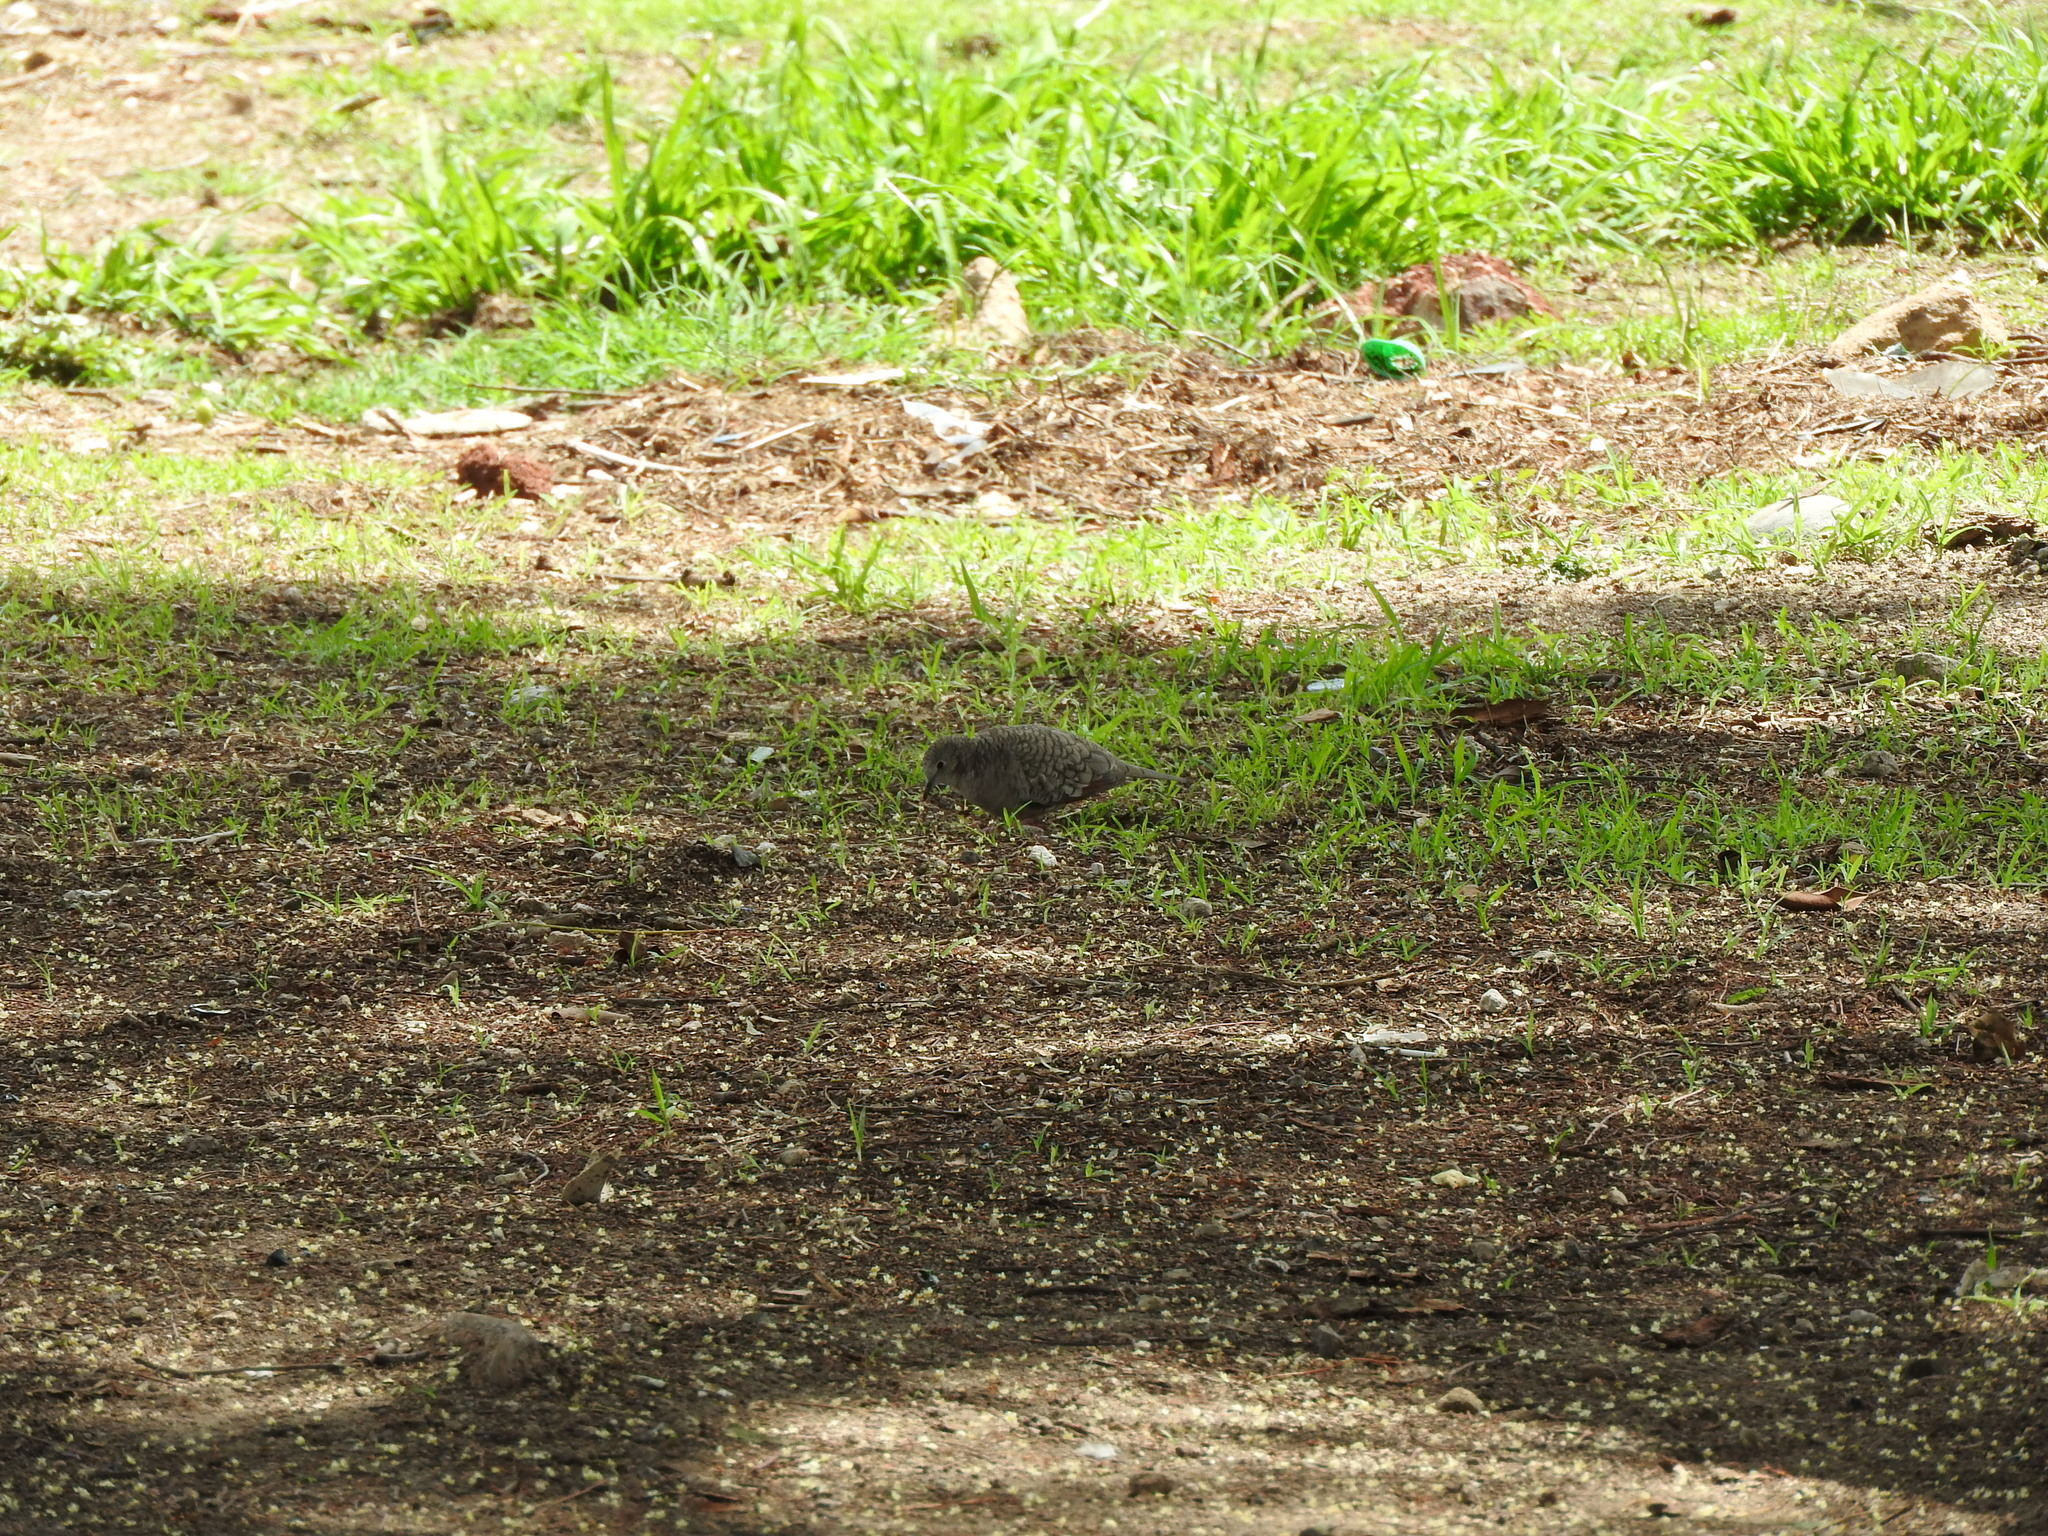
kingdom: Animalia
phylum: Chordata
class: Aves
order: Columbiformes
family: Columbidae
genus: Columbina
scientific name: Columbina inca
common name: Inca dove
